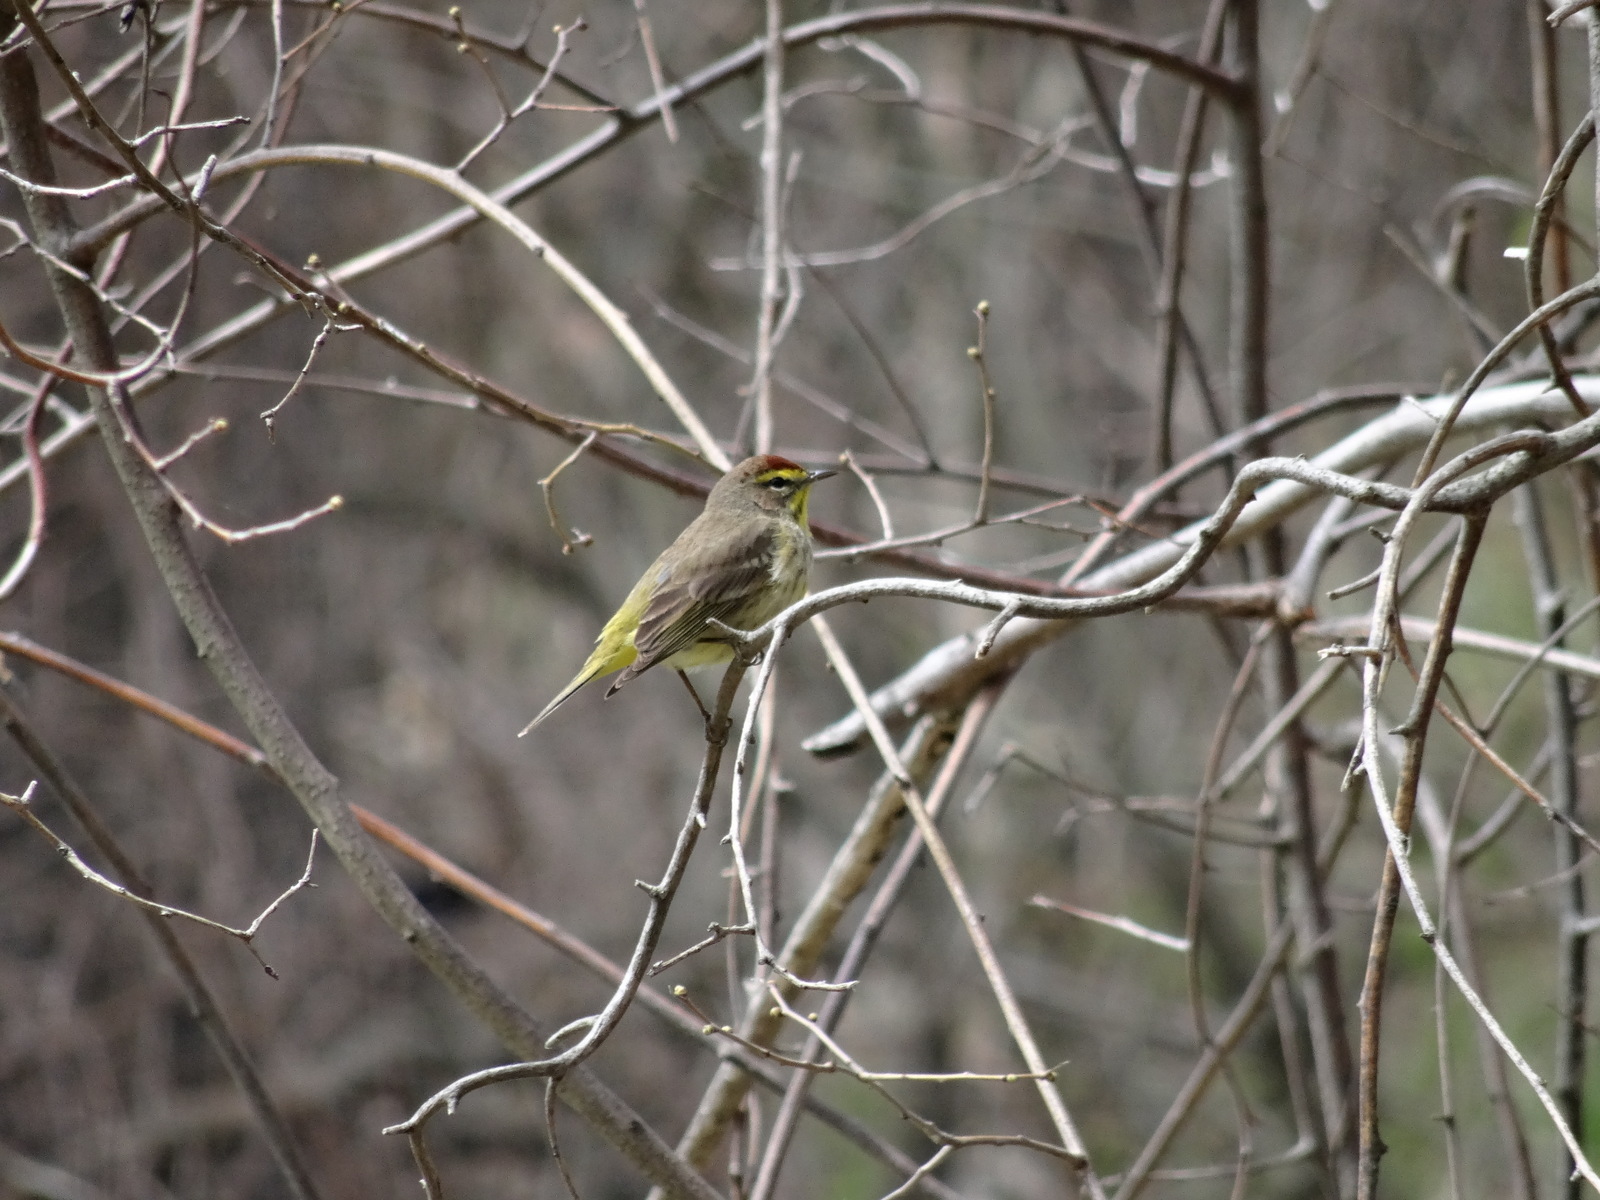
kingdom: Animalia
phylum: Chordata
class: Aves
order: Passeriformes
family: Parulidae
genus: Setophaga
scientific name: Setophaga palmarum
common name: Palm warbler
